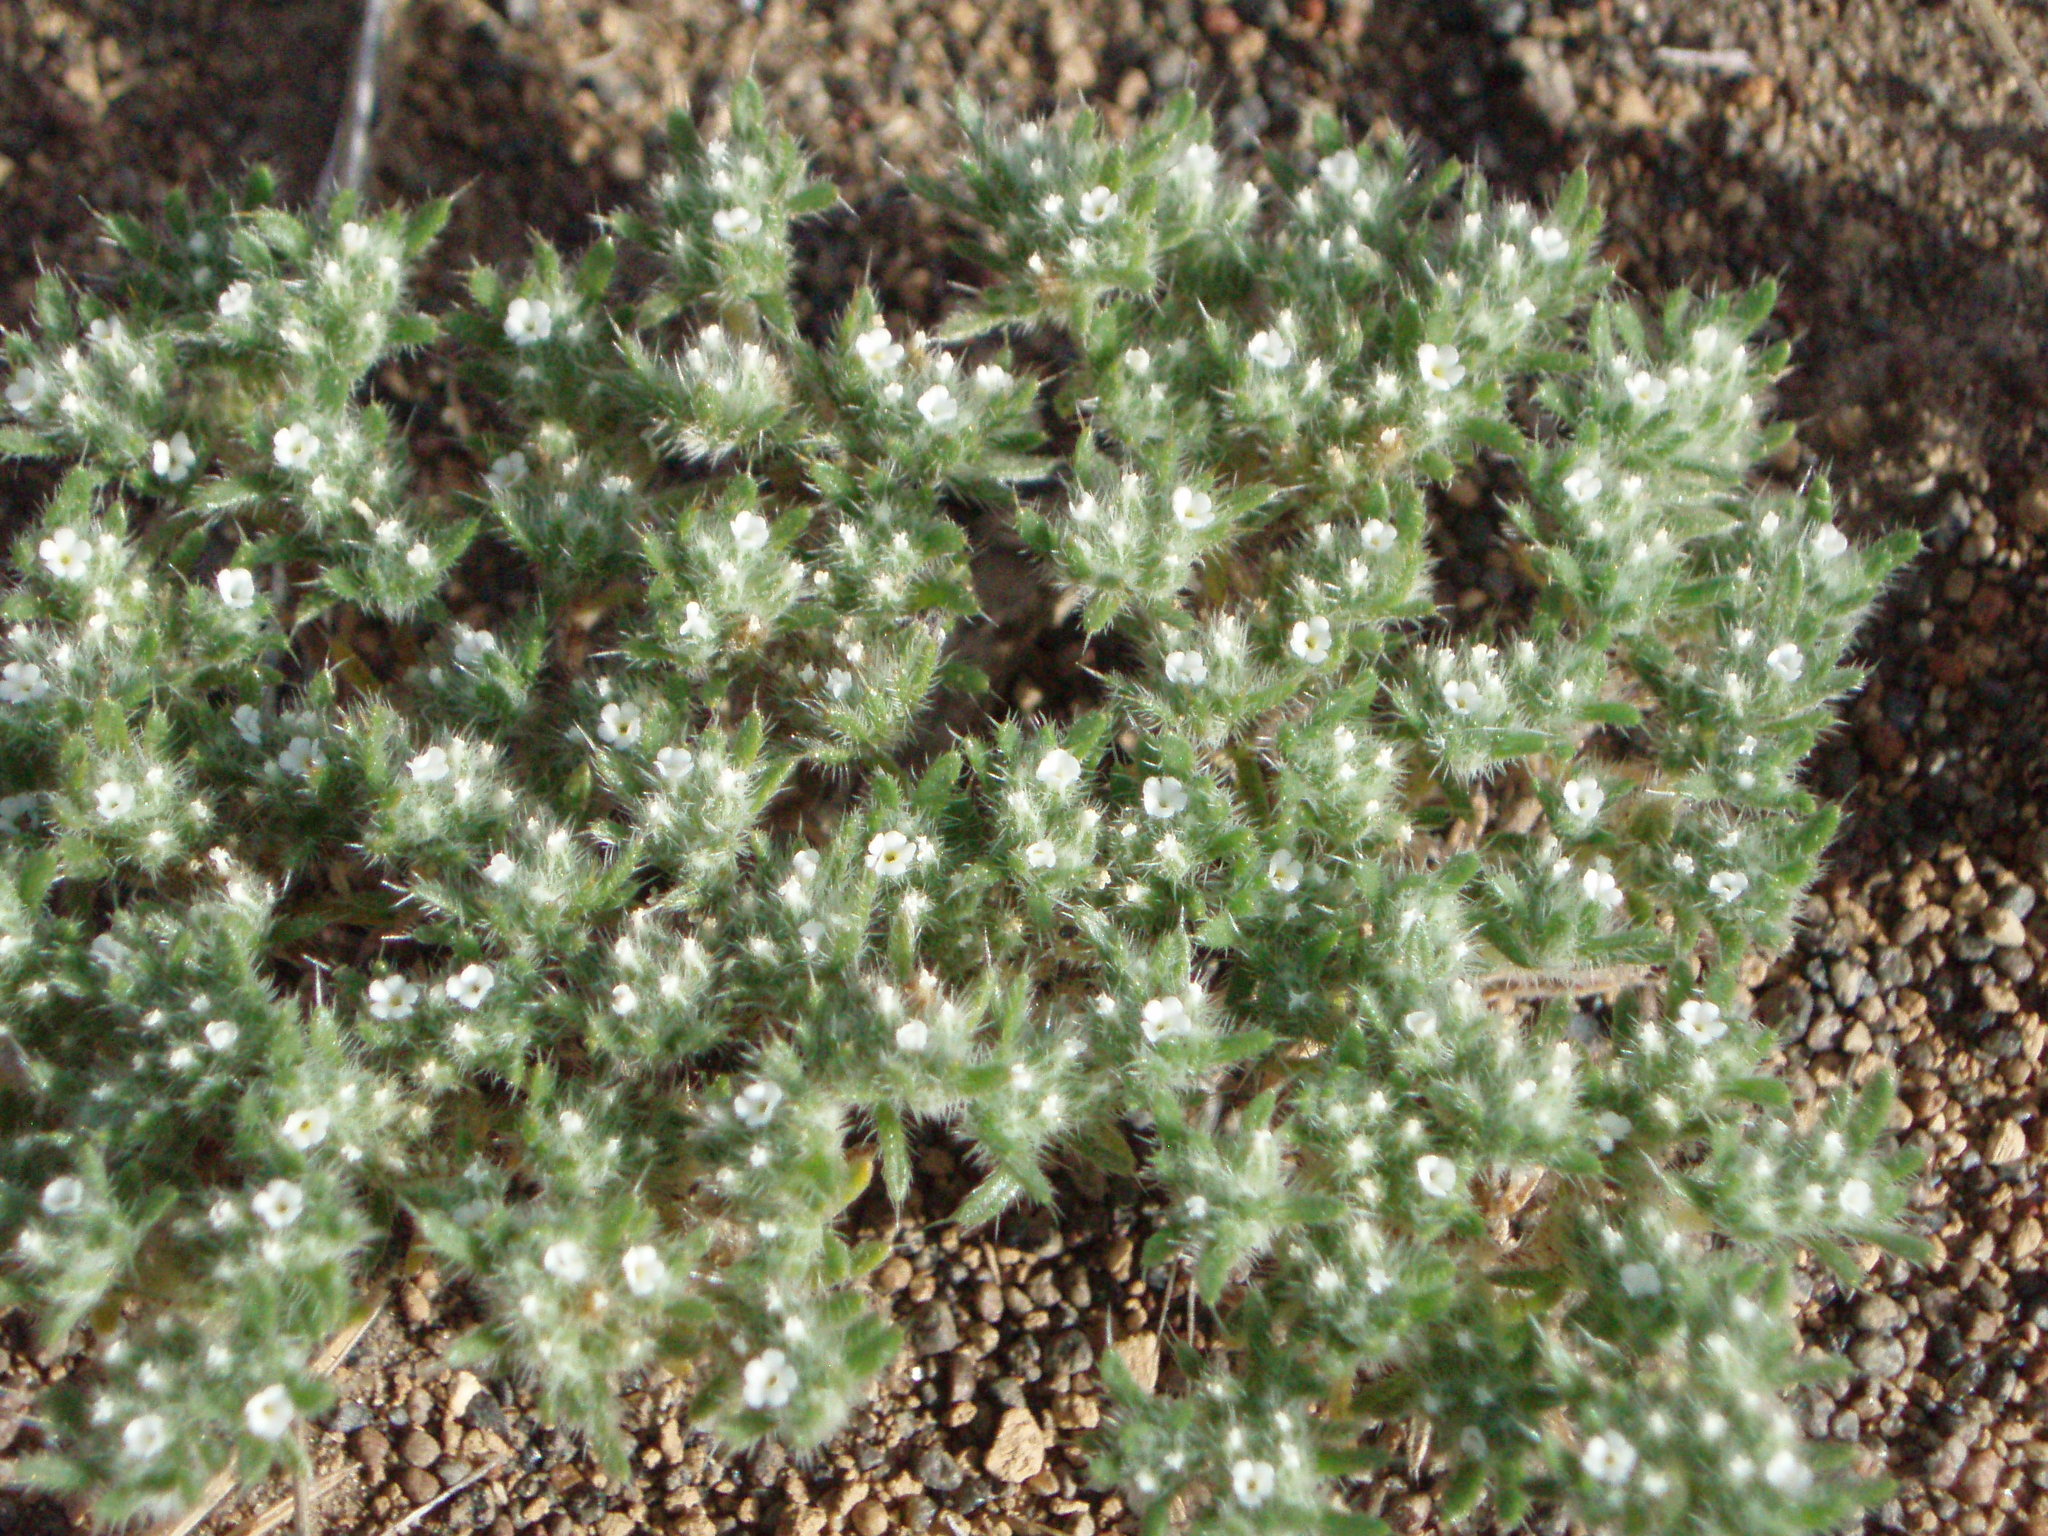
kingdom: Plantae
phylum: Tracheophyta
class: Magnoliopsida
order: Boraginales
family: Boraginaceae
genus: Greeneocharis
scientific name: Greeneocharis circumscissa
